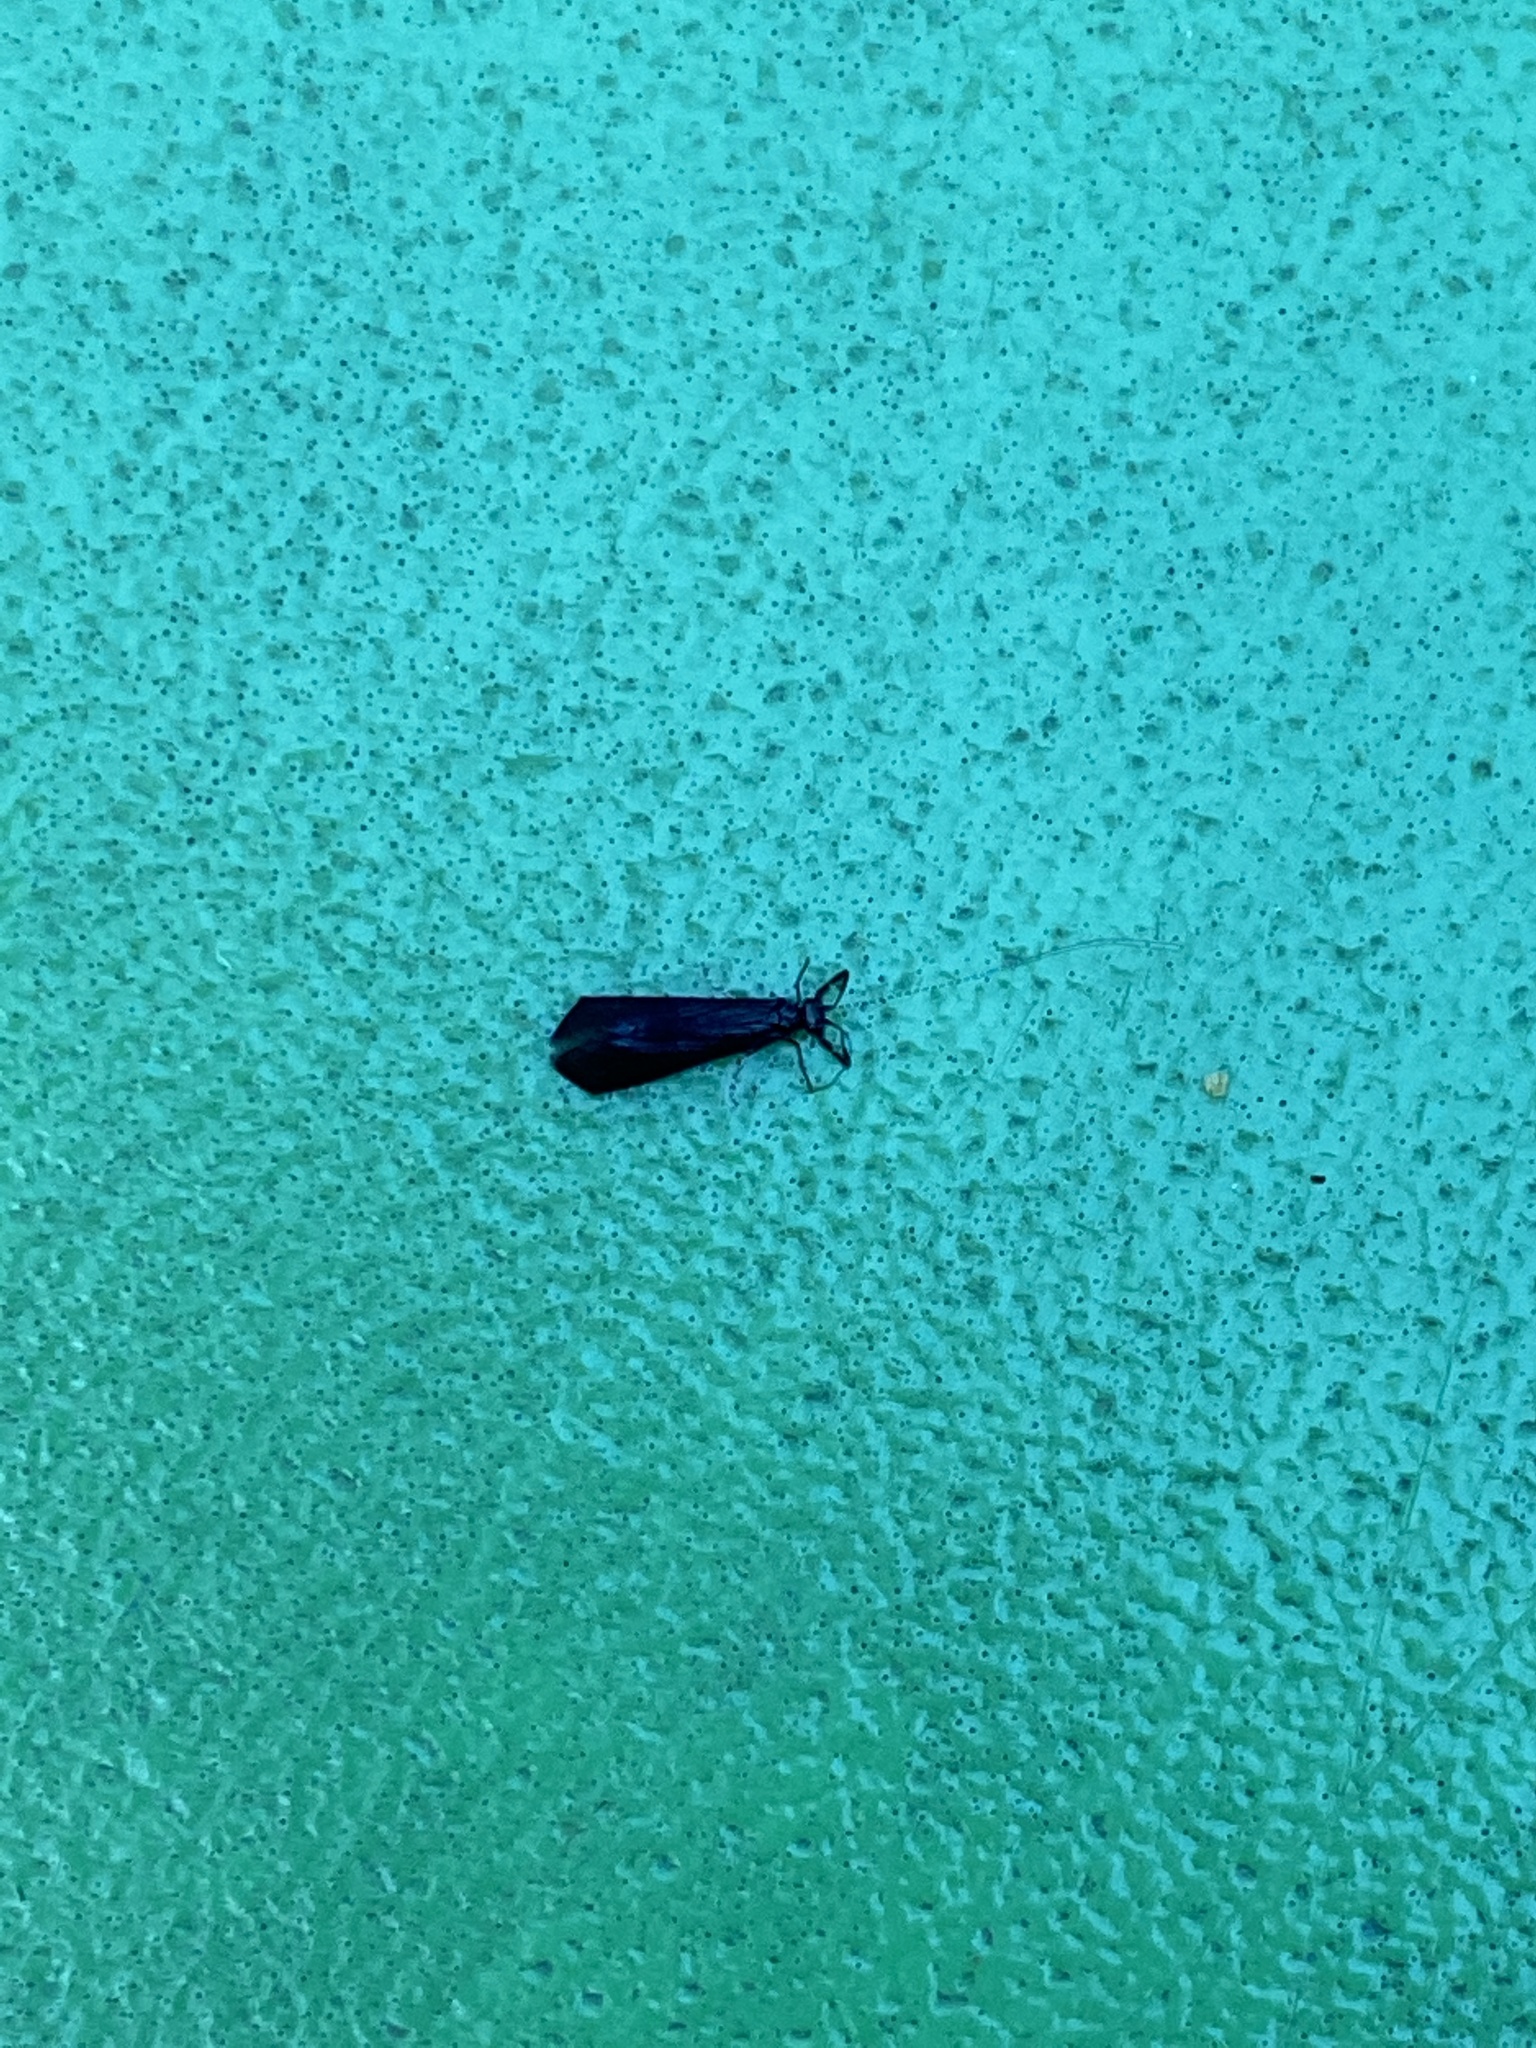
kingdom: Animalia
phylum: Arthropoda
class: Insecta
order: Trichoptera
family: Leptoceridae
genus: Mystacides
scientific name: Mystacides sepulchralis
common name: Black dancer caddisfly
